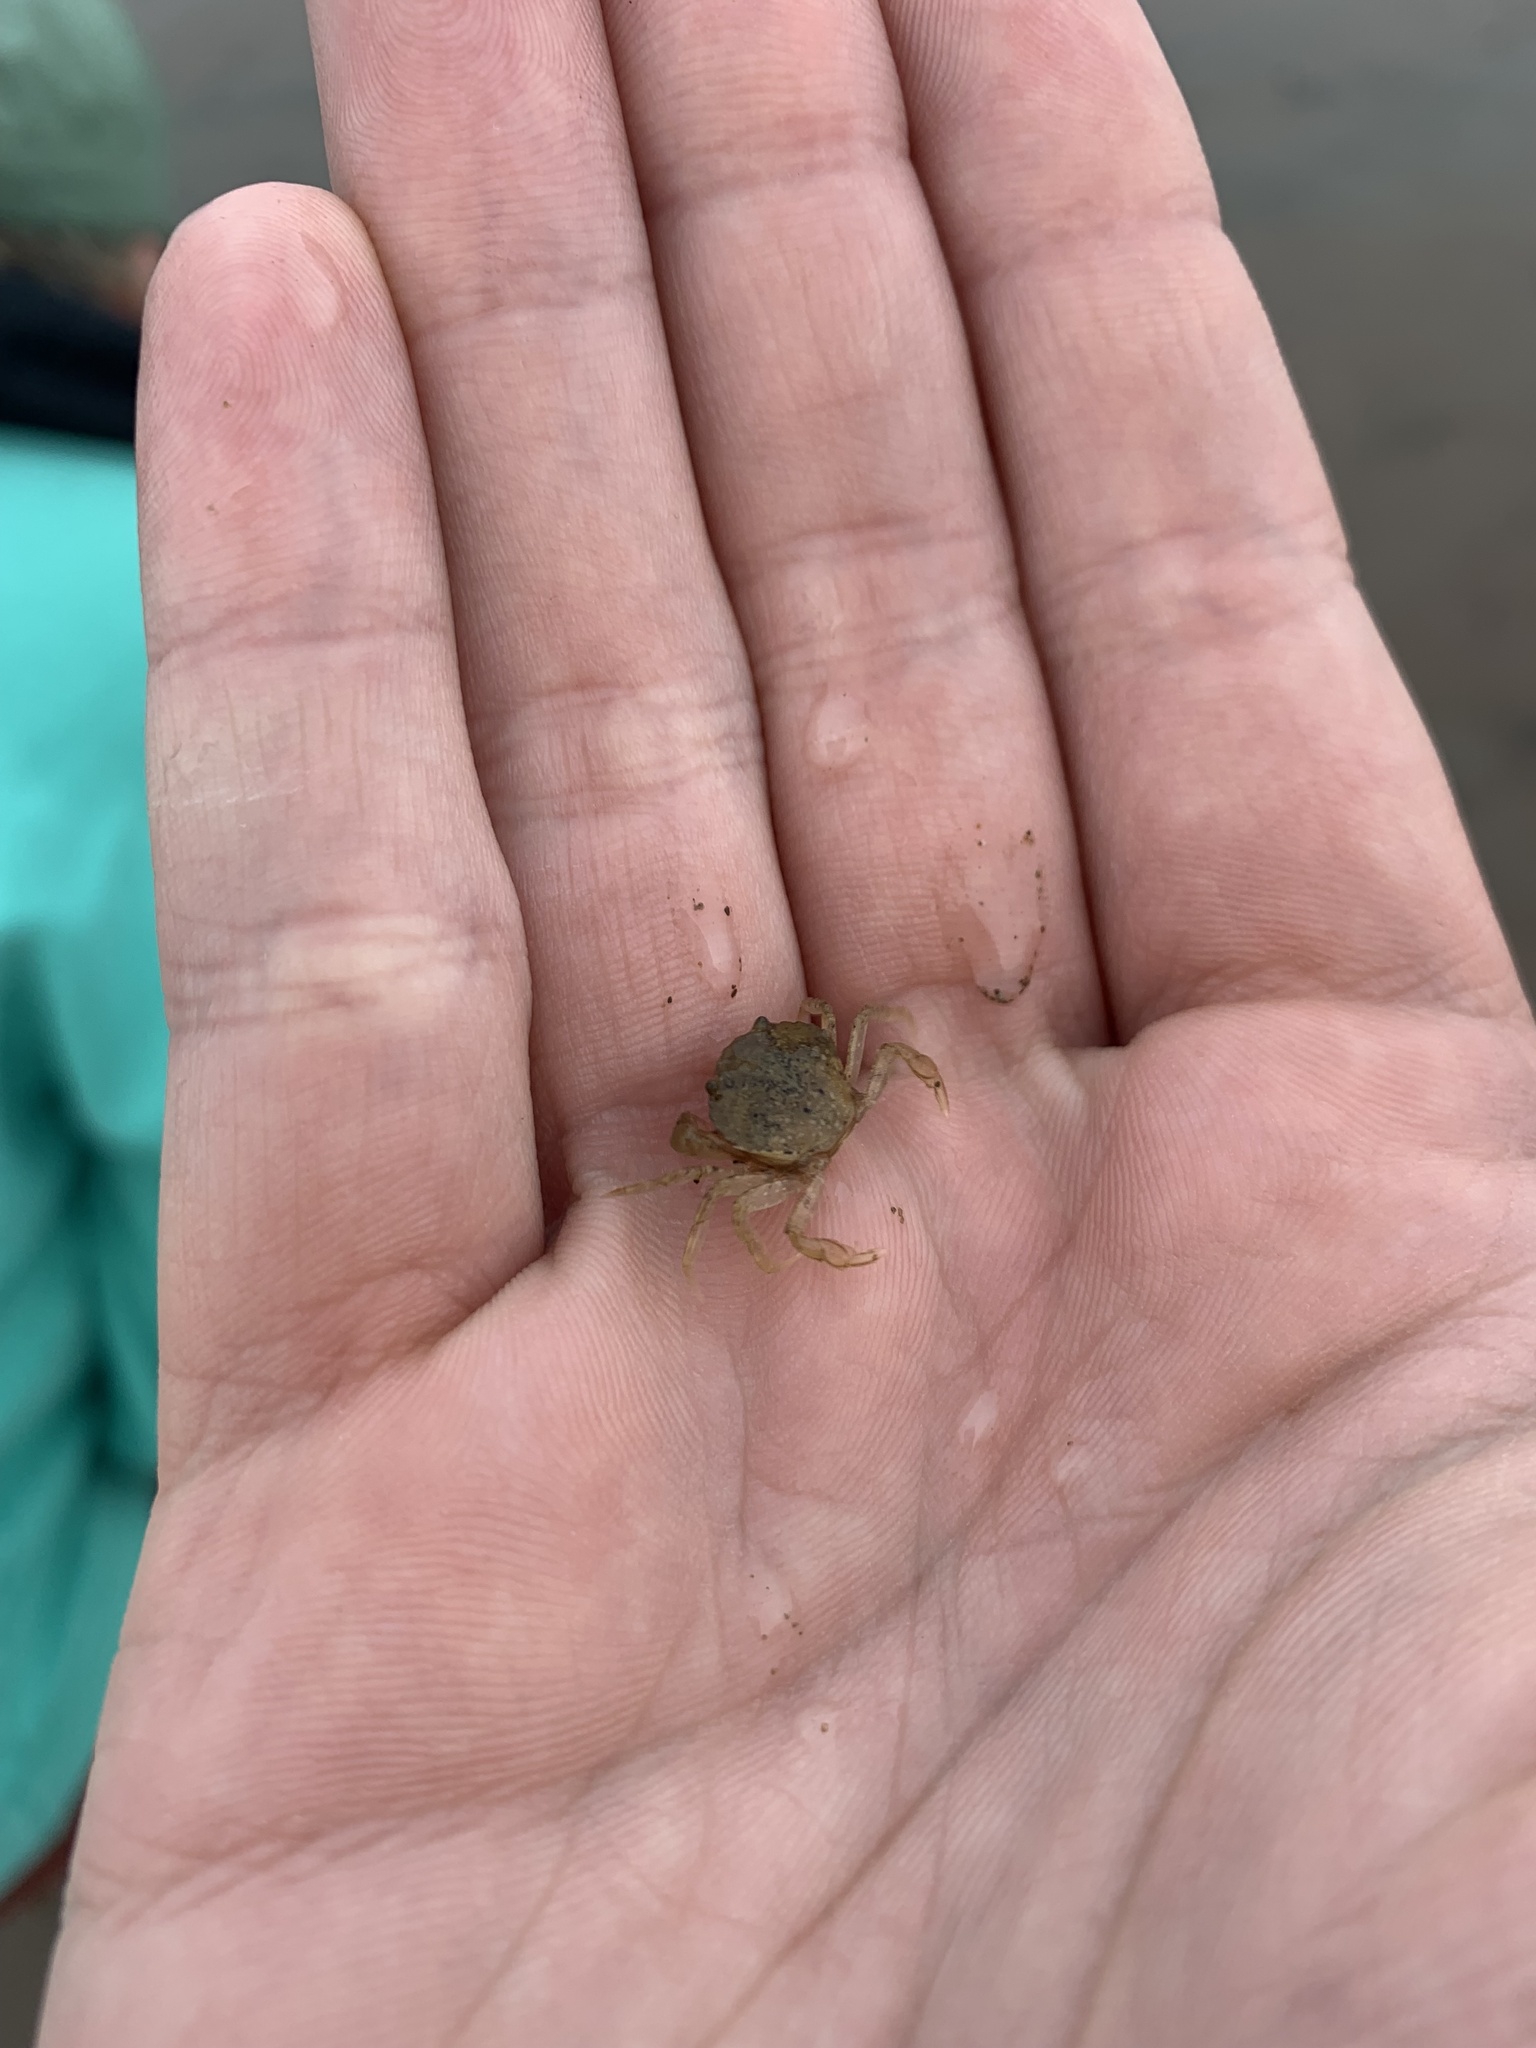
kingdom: Animalia
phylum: Arthropoda
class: Malacostraca
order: Decapoda
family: Carcinidae
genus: Carcinus
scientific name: Carcinus maenas
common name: European green crab
